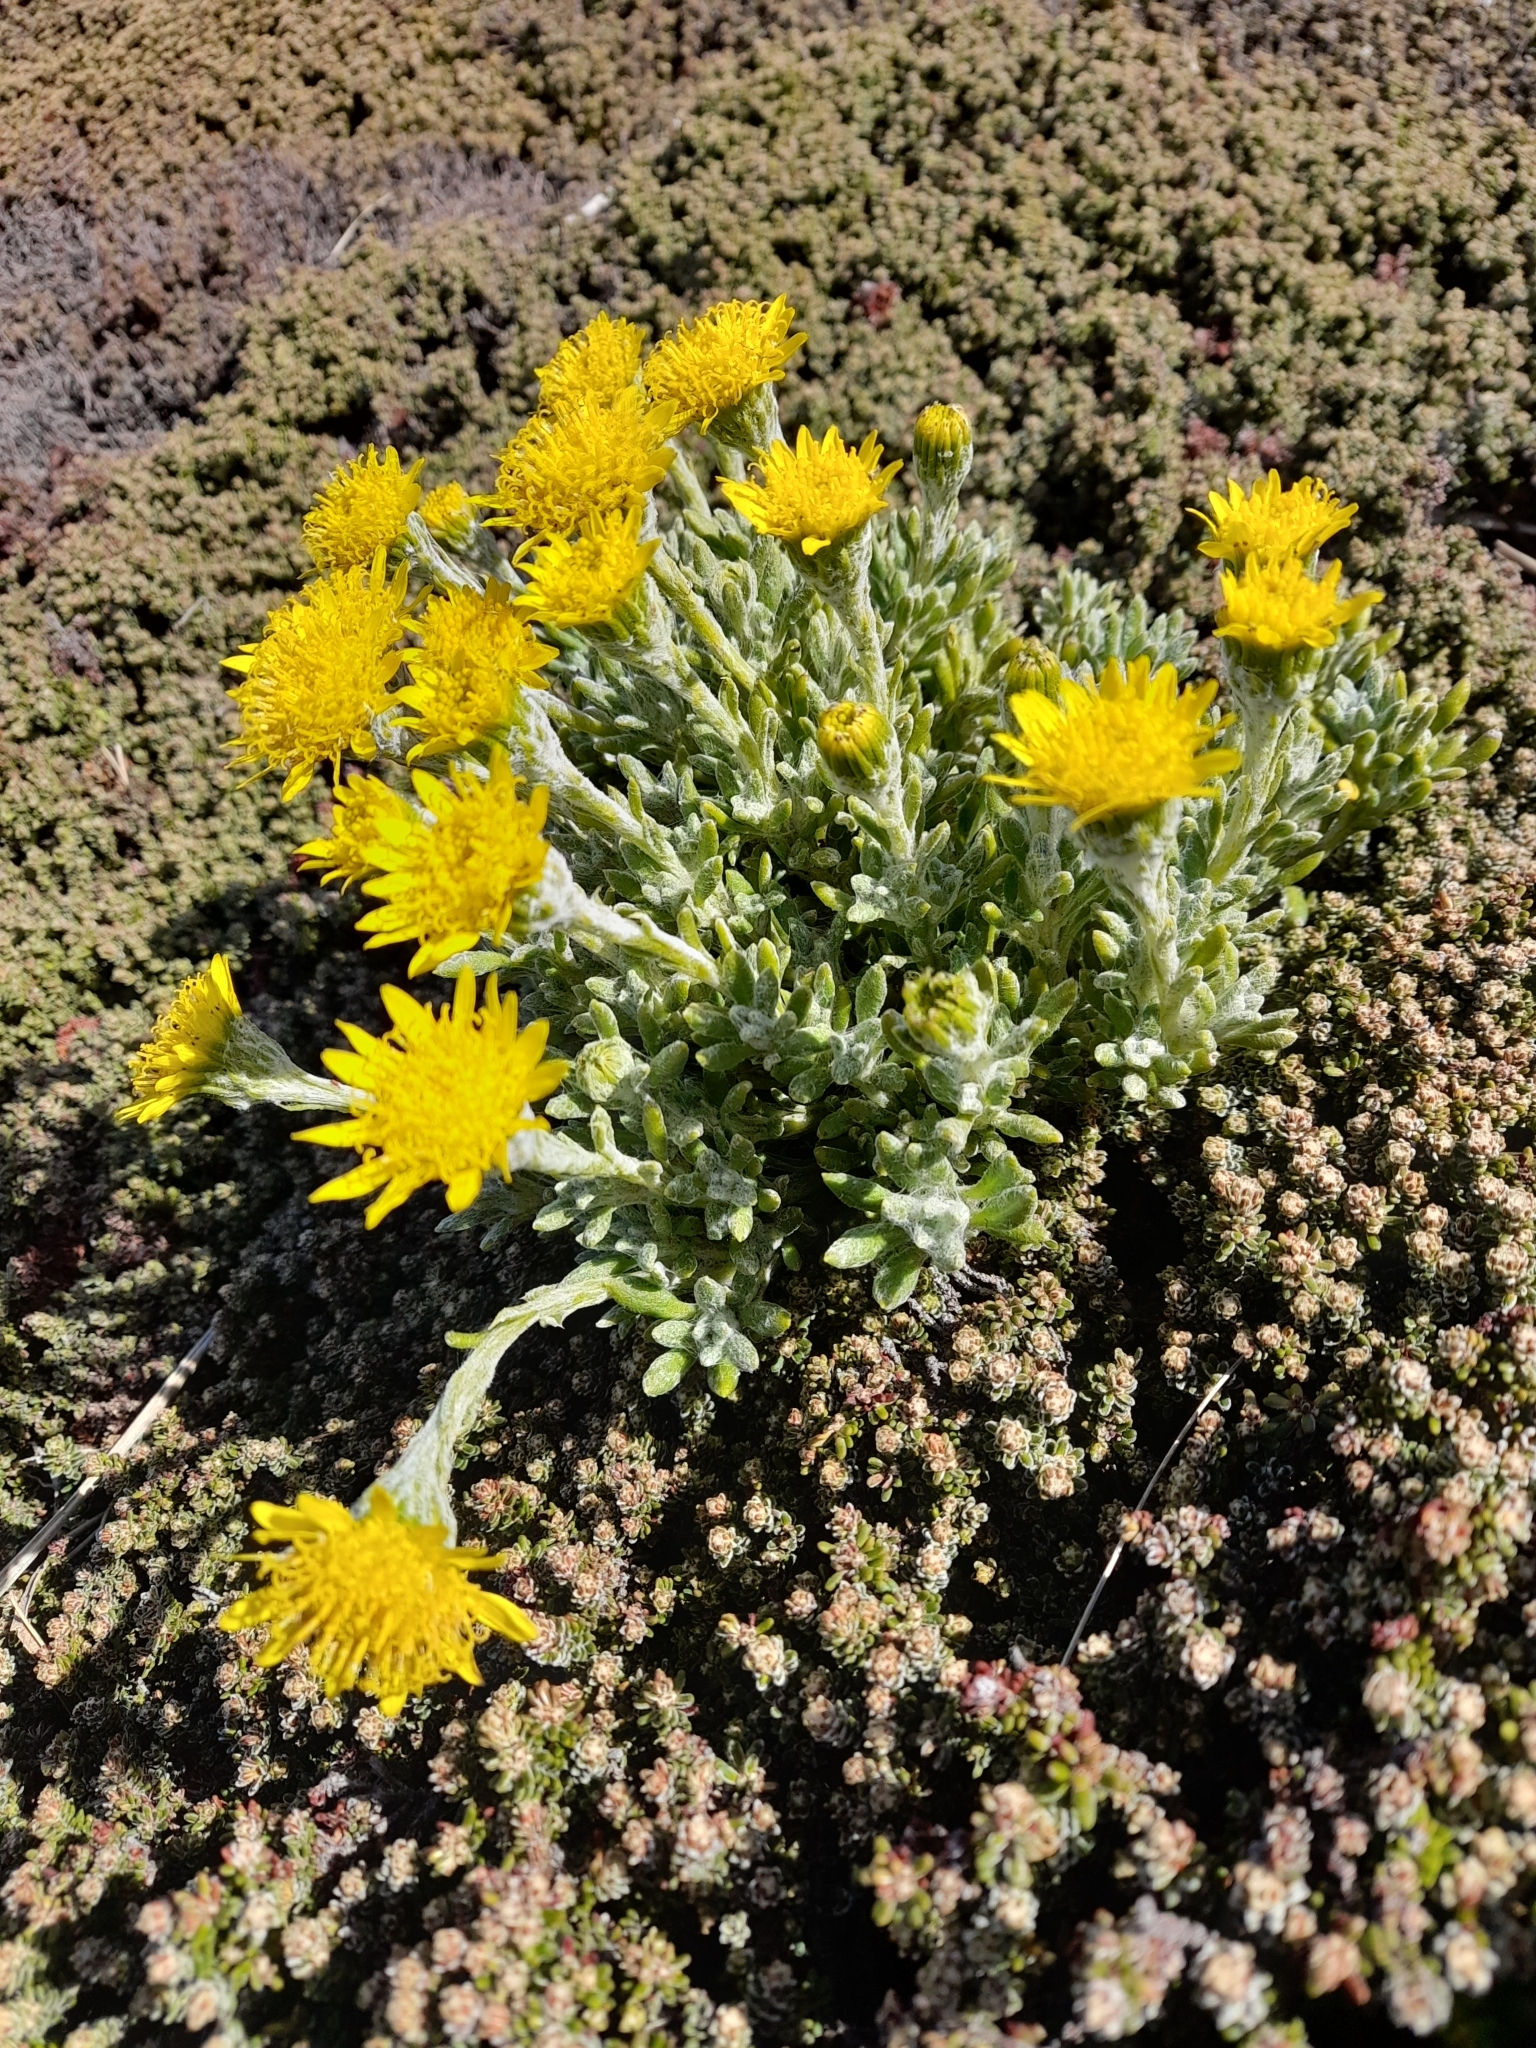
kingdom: Plantae
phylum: Tracheophyta
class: Magnoliopsida
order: Asterales
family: Asteraceae
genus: Senecio
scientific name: Senecio falklandicus
